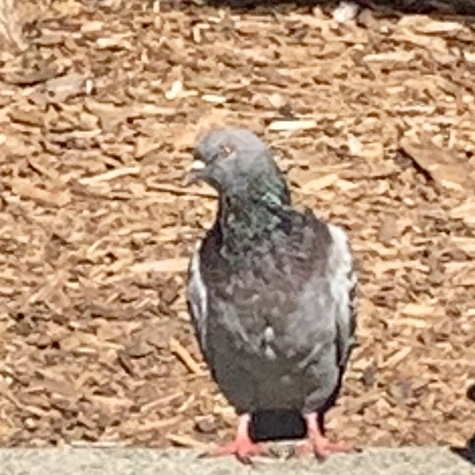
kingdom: Animalia
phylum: Chordata
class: Aves
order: Columbiformes
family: Columbidae
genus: Columba
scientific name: Columba livia
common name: Rock pigeon
